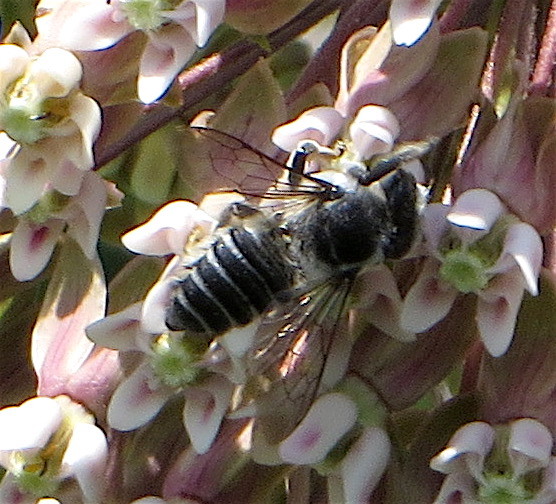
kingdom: Animalia
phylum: Arthropoda
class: Insecta
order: Hymenoptera
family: Megachilidae
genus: Megachile
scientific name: Megachile texana
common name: Texas leafcutter
